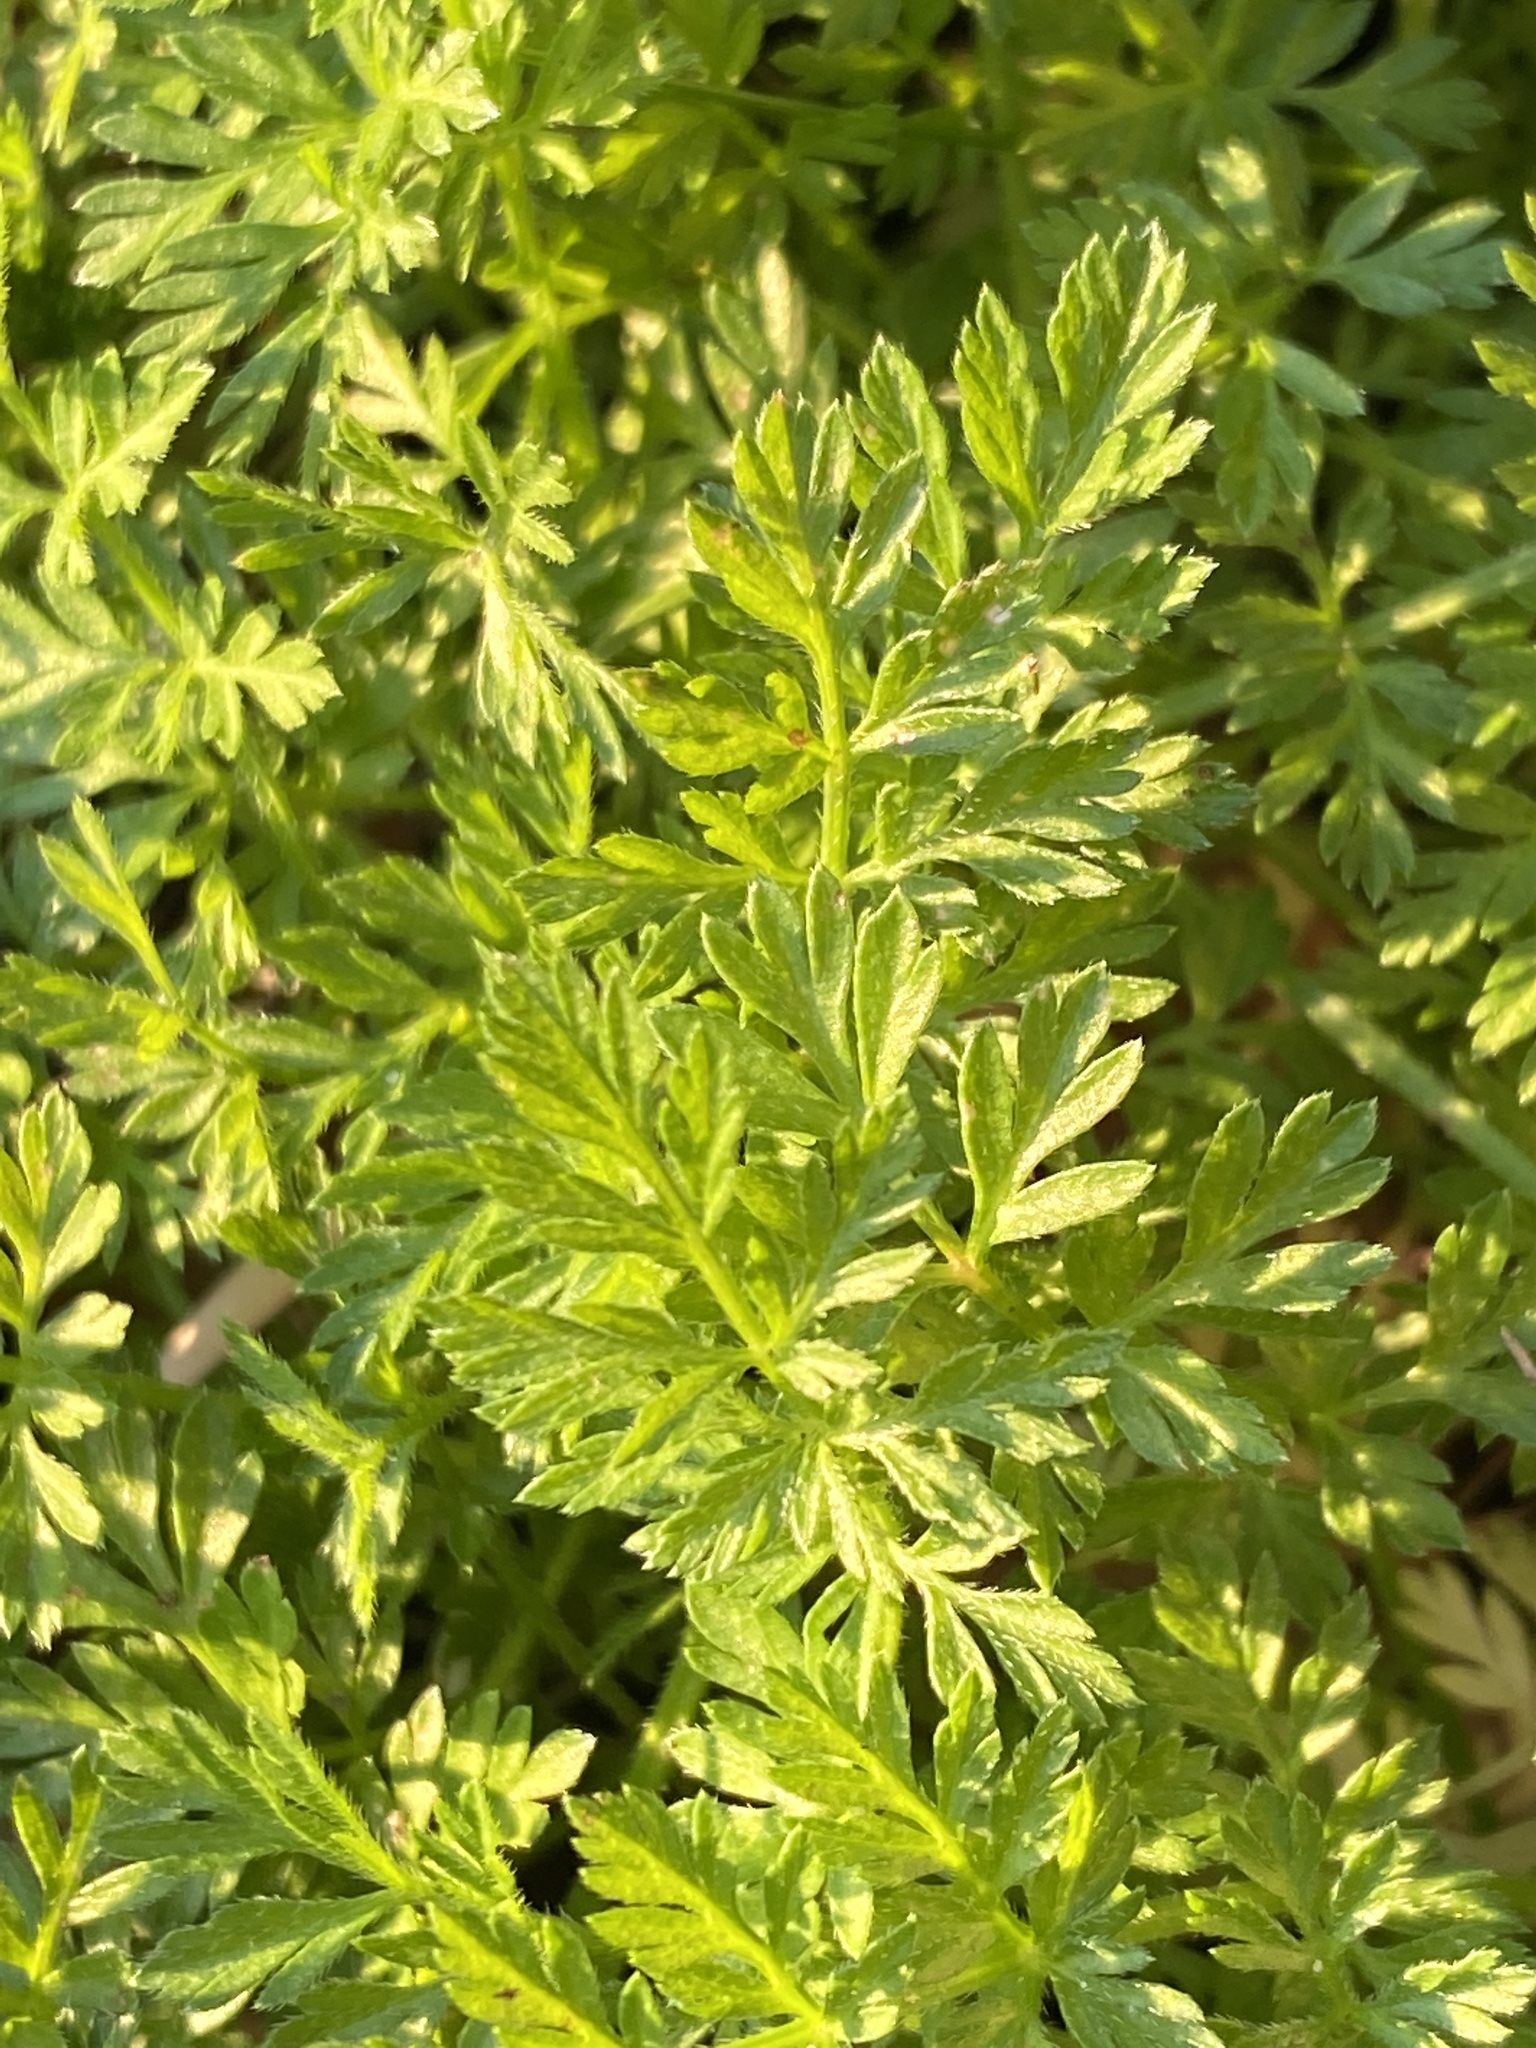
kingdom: Plantae
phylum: Tracheophyta
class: Magnoliopsida
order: Apiales
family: Apiaceae
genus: Torilis
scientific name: Torilis nodosa
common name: Knotted hedge-parsley
